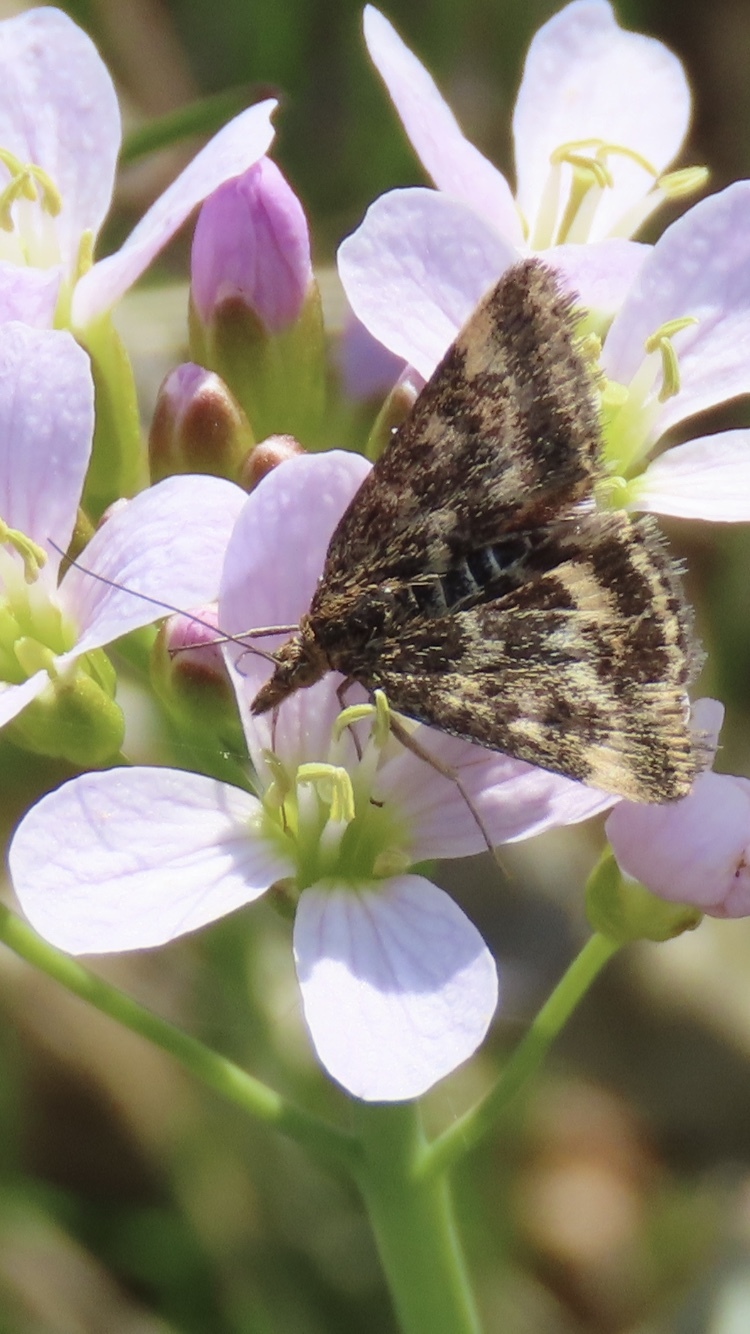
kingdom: Animalia
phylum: Arthropoda
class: Insecta
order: Lepidoptera
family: Crambidae
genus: Pyrausta
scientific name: Pyrausta despicata
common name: Straw-barred pearl
